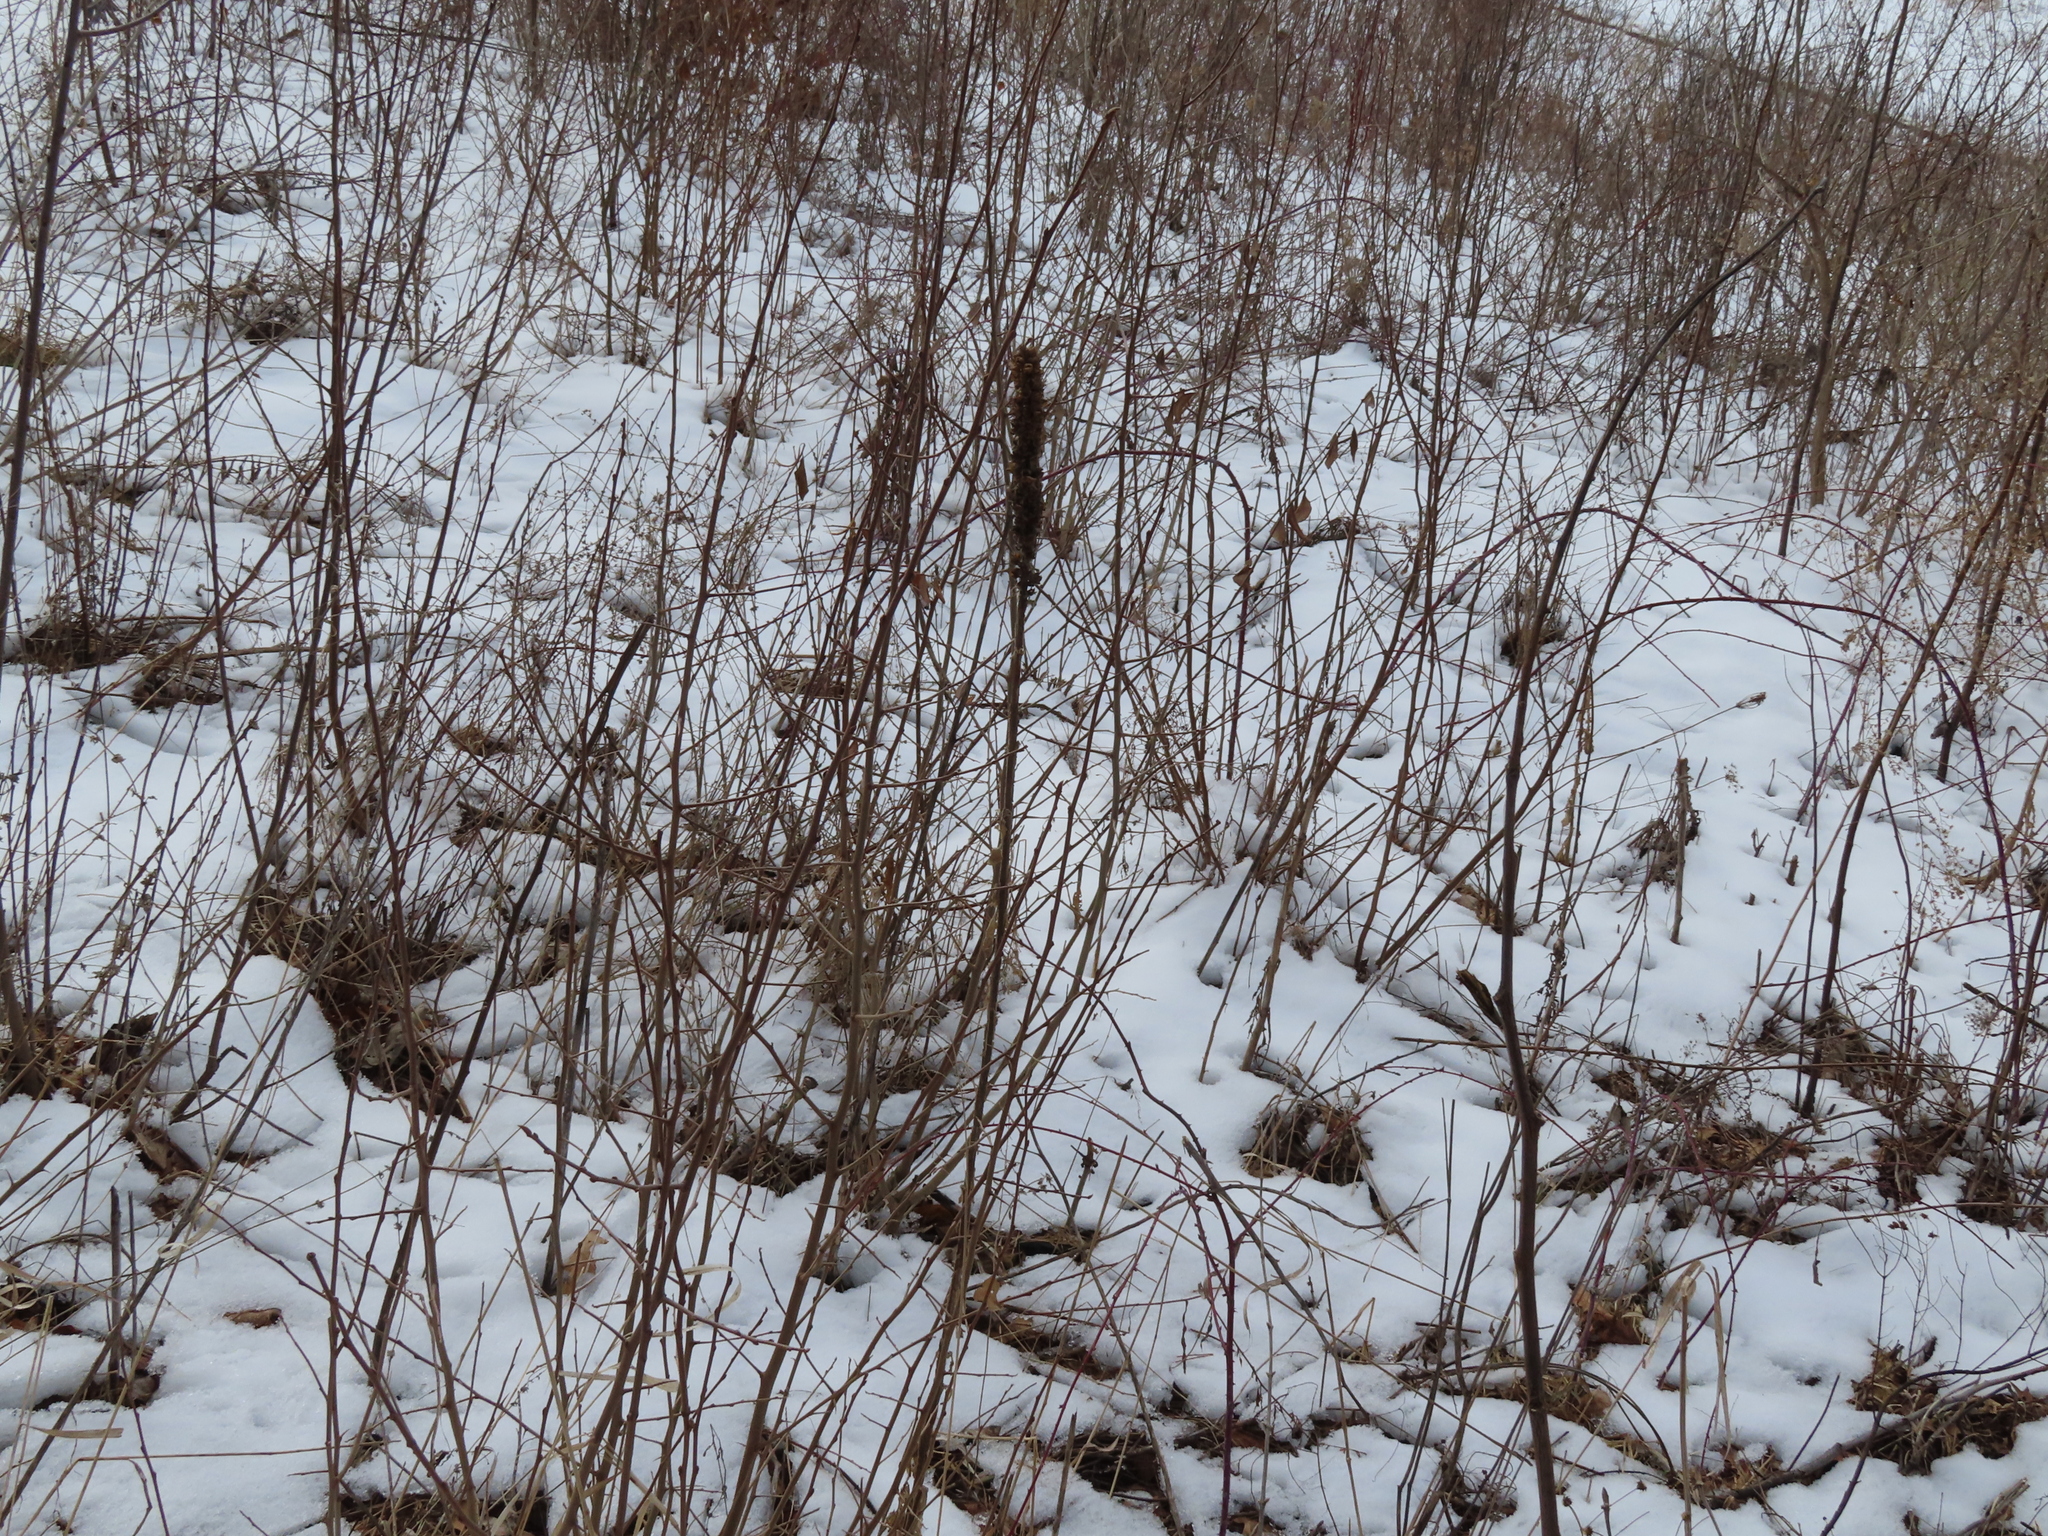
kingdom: Plantae
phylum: Tracheophyta
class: Magnoliopsida
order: Lamiales
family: Scrophulariaceae
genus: Verbascum
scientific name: Verbascum thapsus
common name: Common mullein
